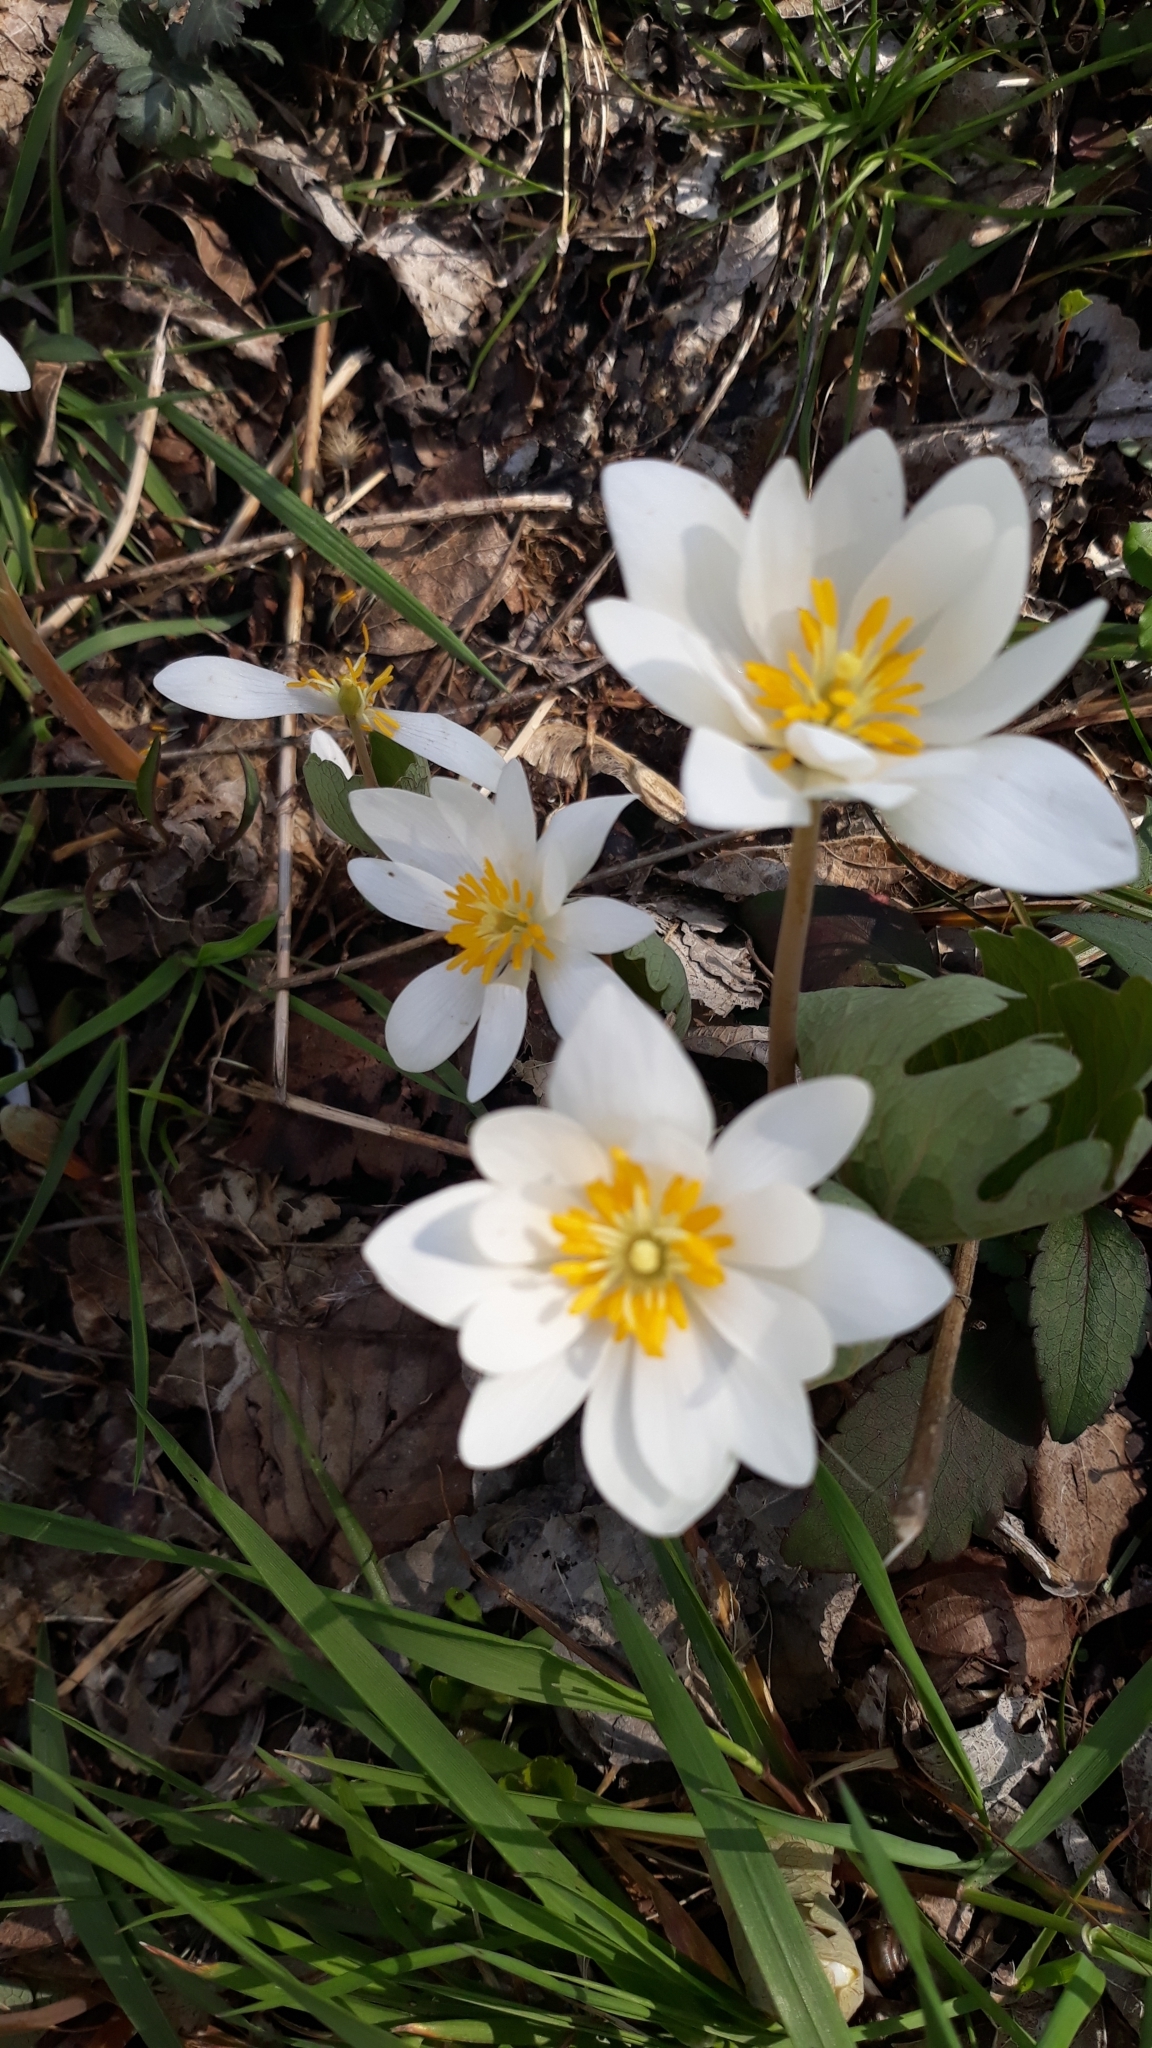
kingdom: Plantae
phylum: Tracheophyta
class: Magnoliopsida
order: Ranunculales
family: Papaveraceae
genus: Sanguinaria
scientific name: Sanguinaria canadensis
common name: Bloodroot
